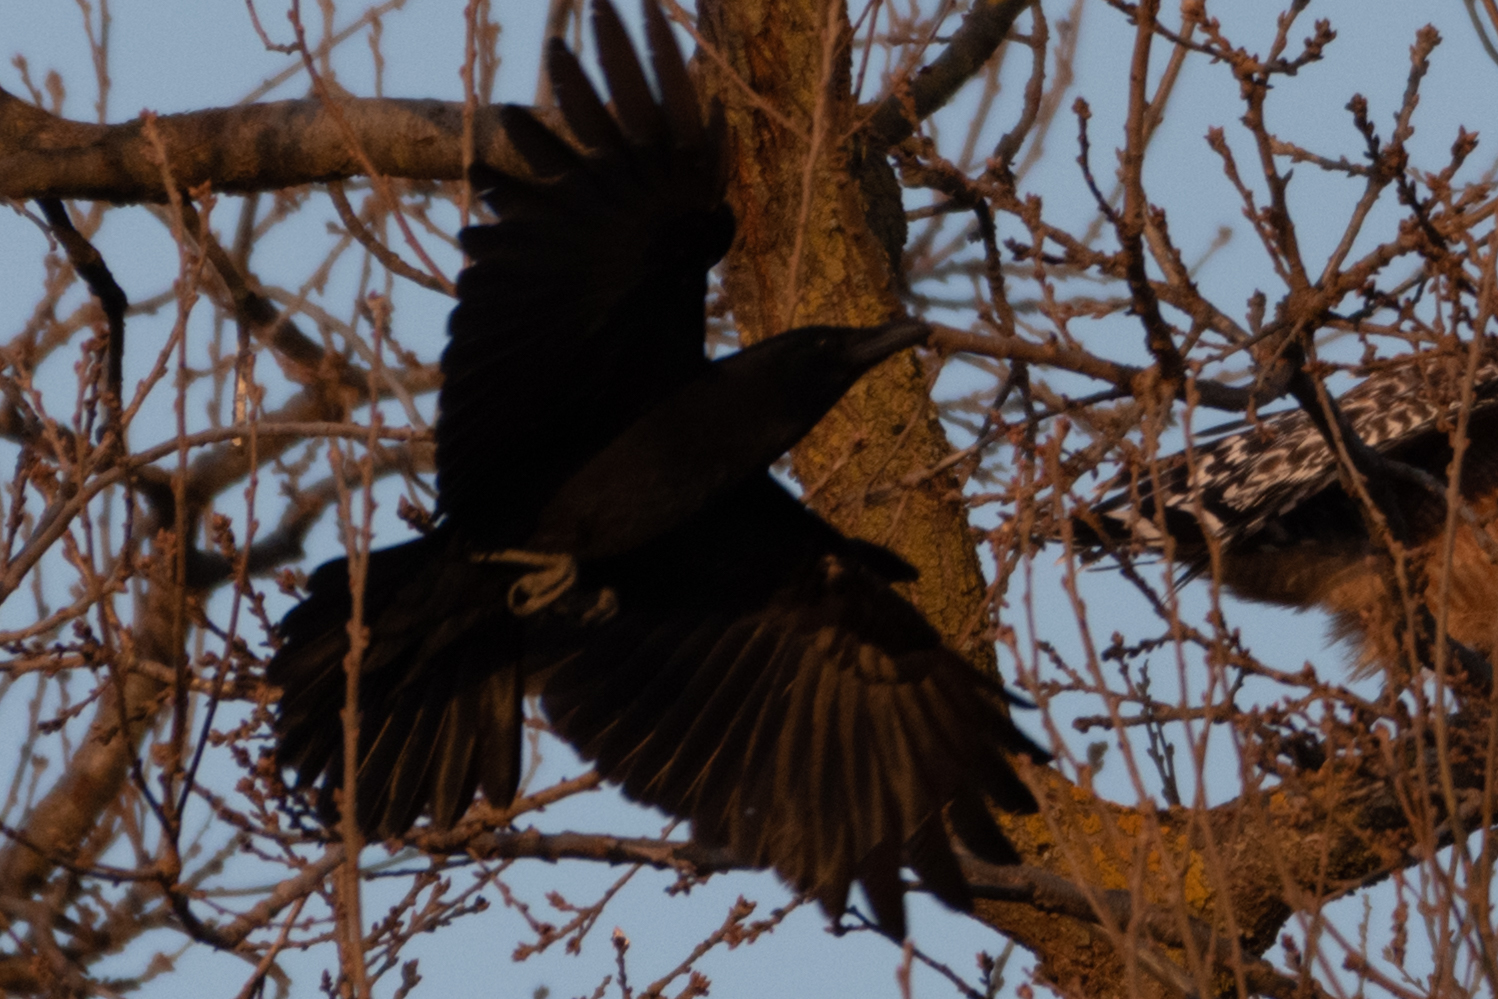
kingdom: Animalia
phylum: Chordata
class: Aves
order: Passeriformes
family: Corvidae
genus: Corvus
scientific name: Corvus brachyrhynchos
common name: American crow
